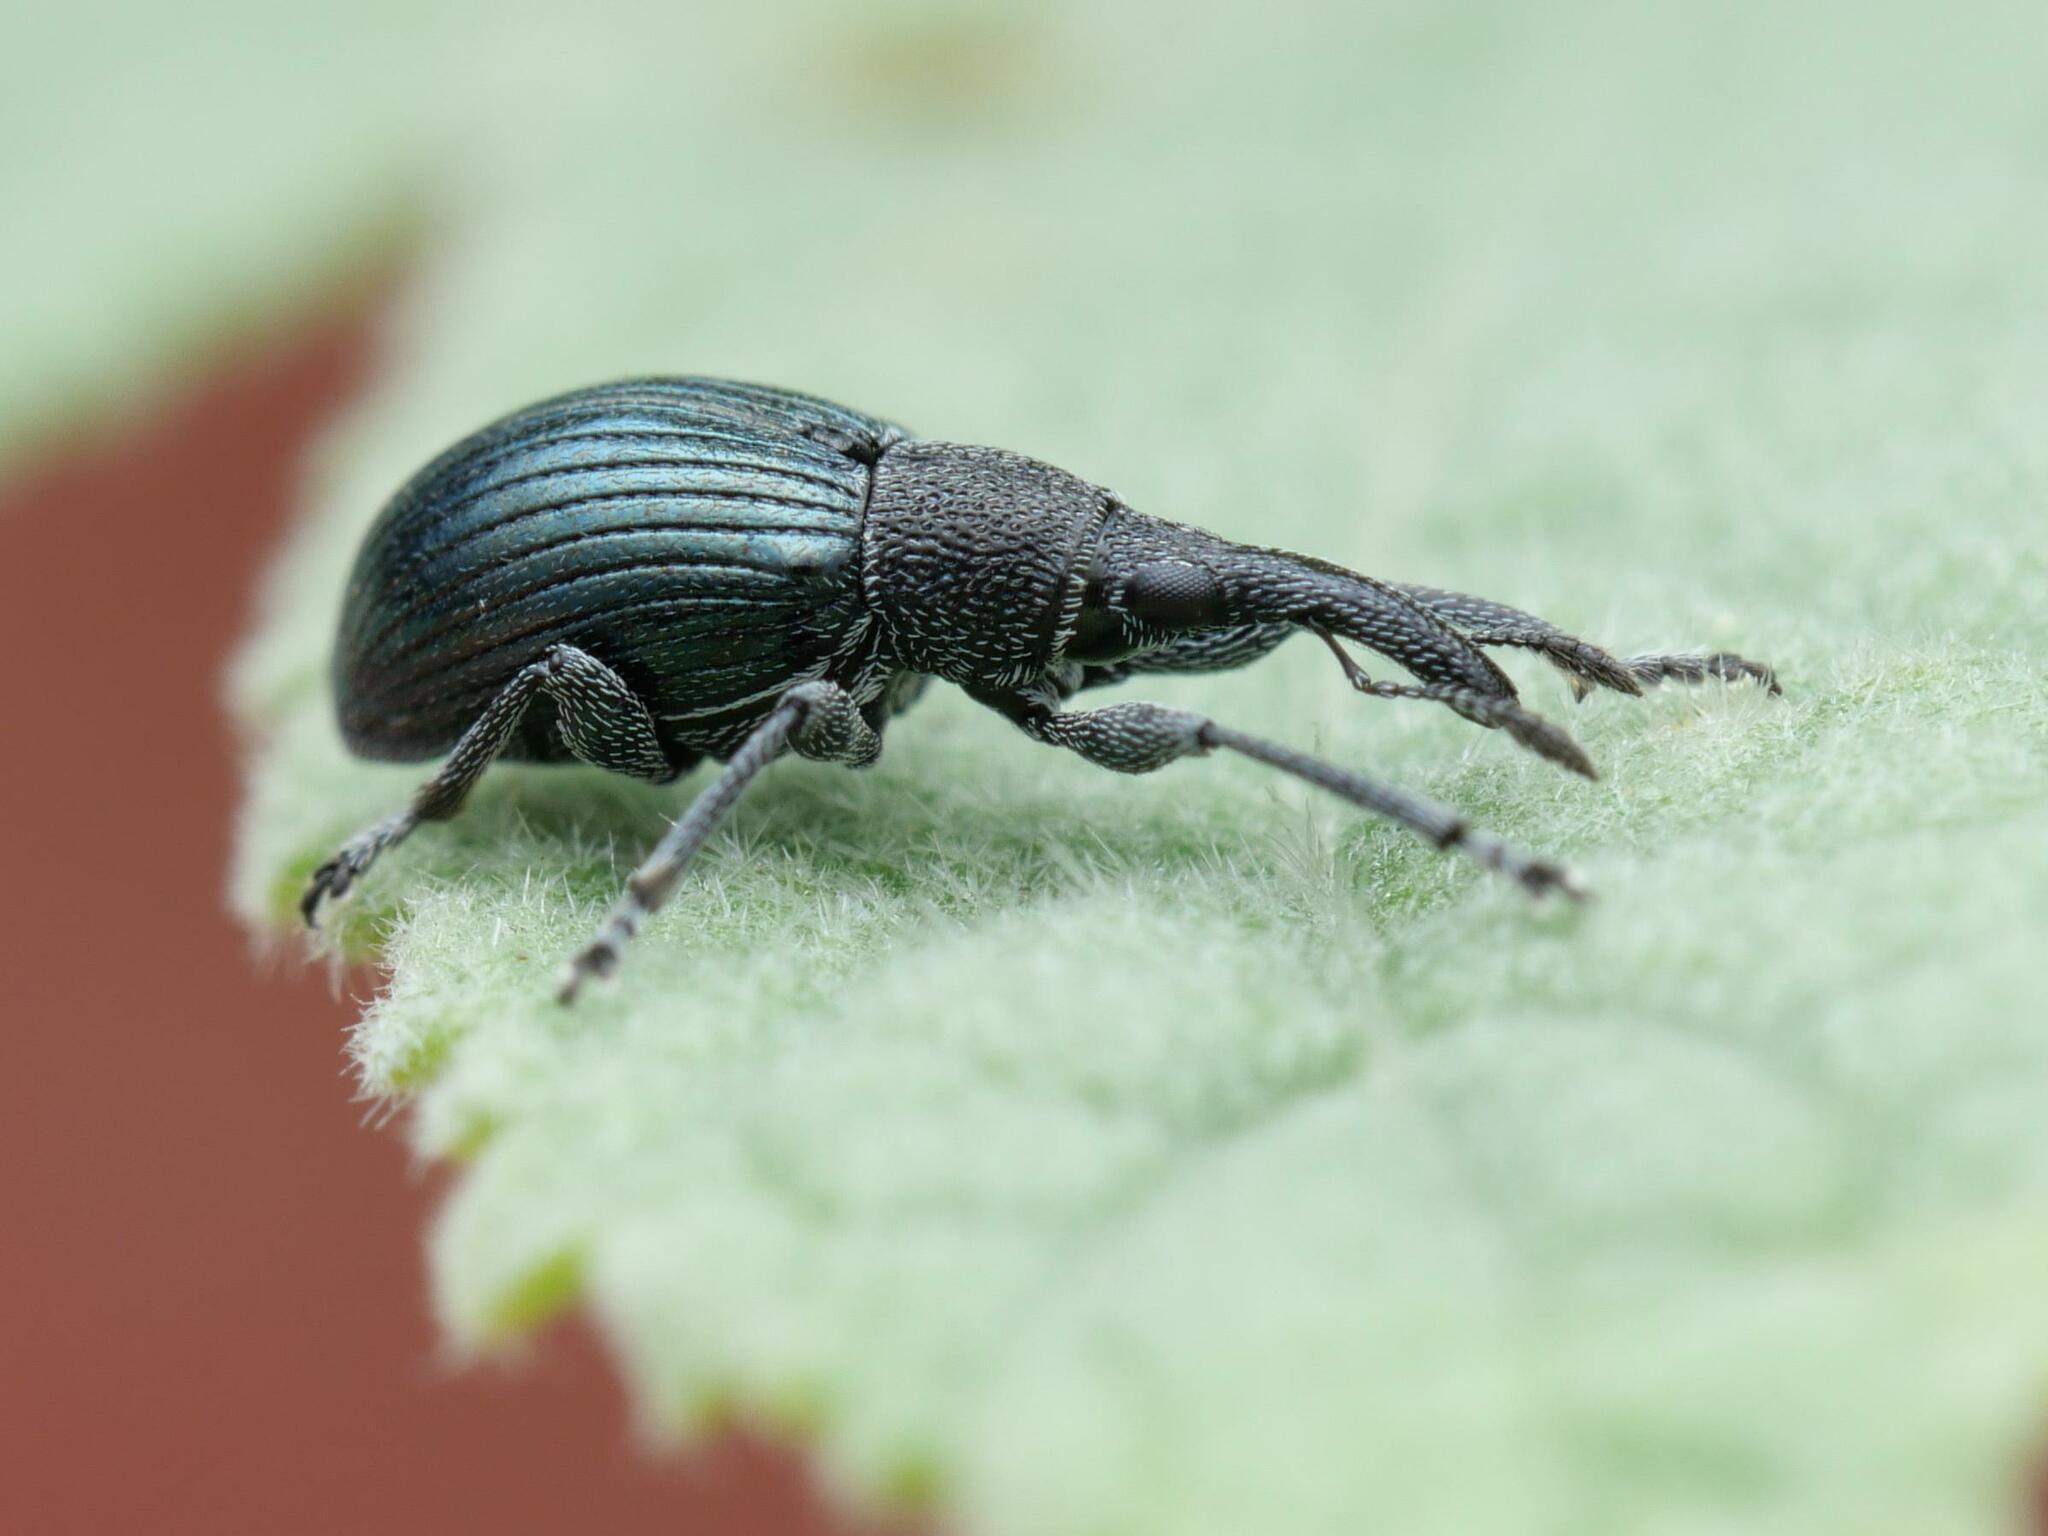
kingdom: Animalia
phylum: Arthropoda
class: Insecta
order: Coleoptera
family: Apionidae
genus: Aspidapion
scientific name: Aspidapion validum
